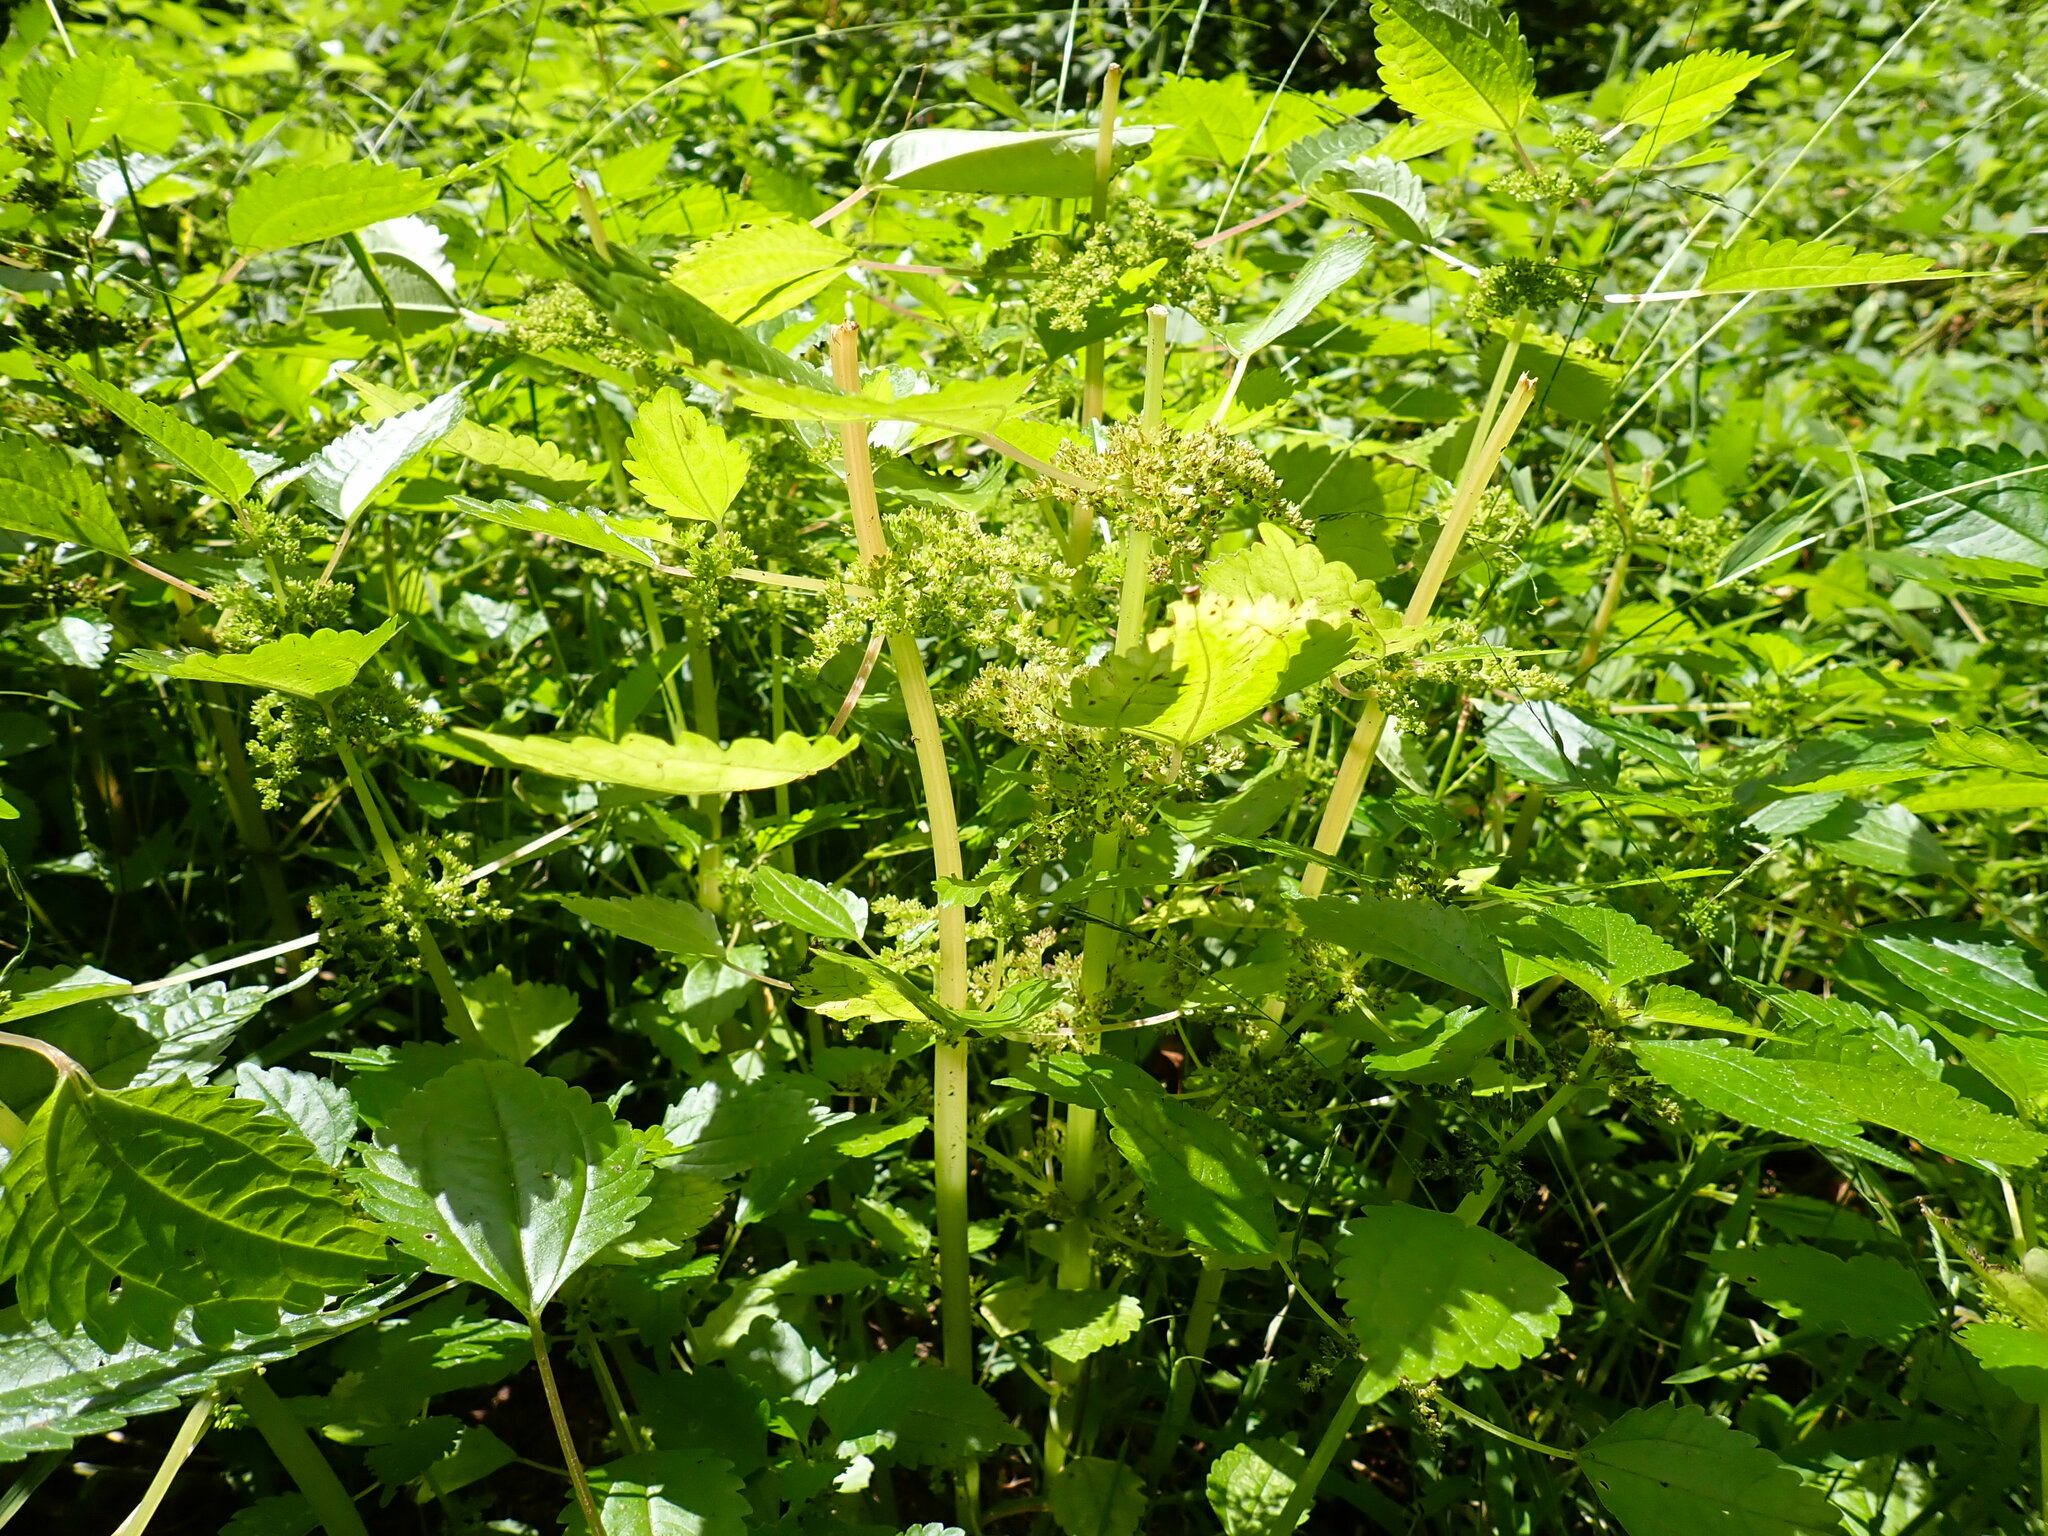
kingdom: Plantae
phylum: Tracheophyta
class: Magnoliopsida
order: Rosales
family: Urticaceae
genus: Pilea
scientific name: Pilea pumila
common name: Clearweed
